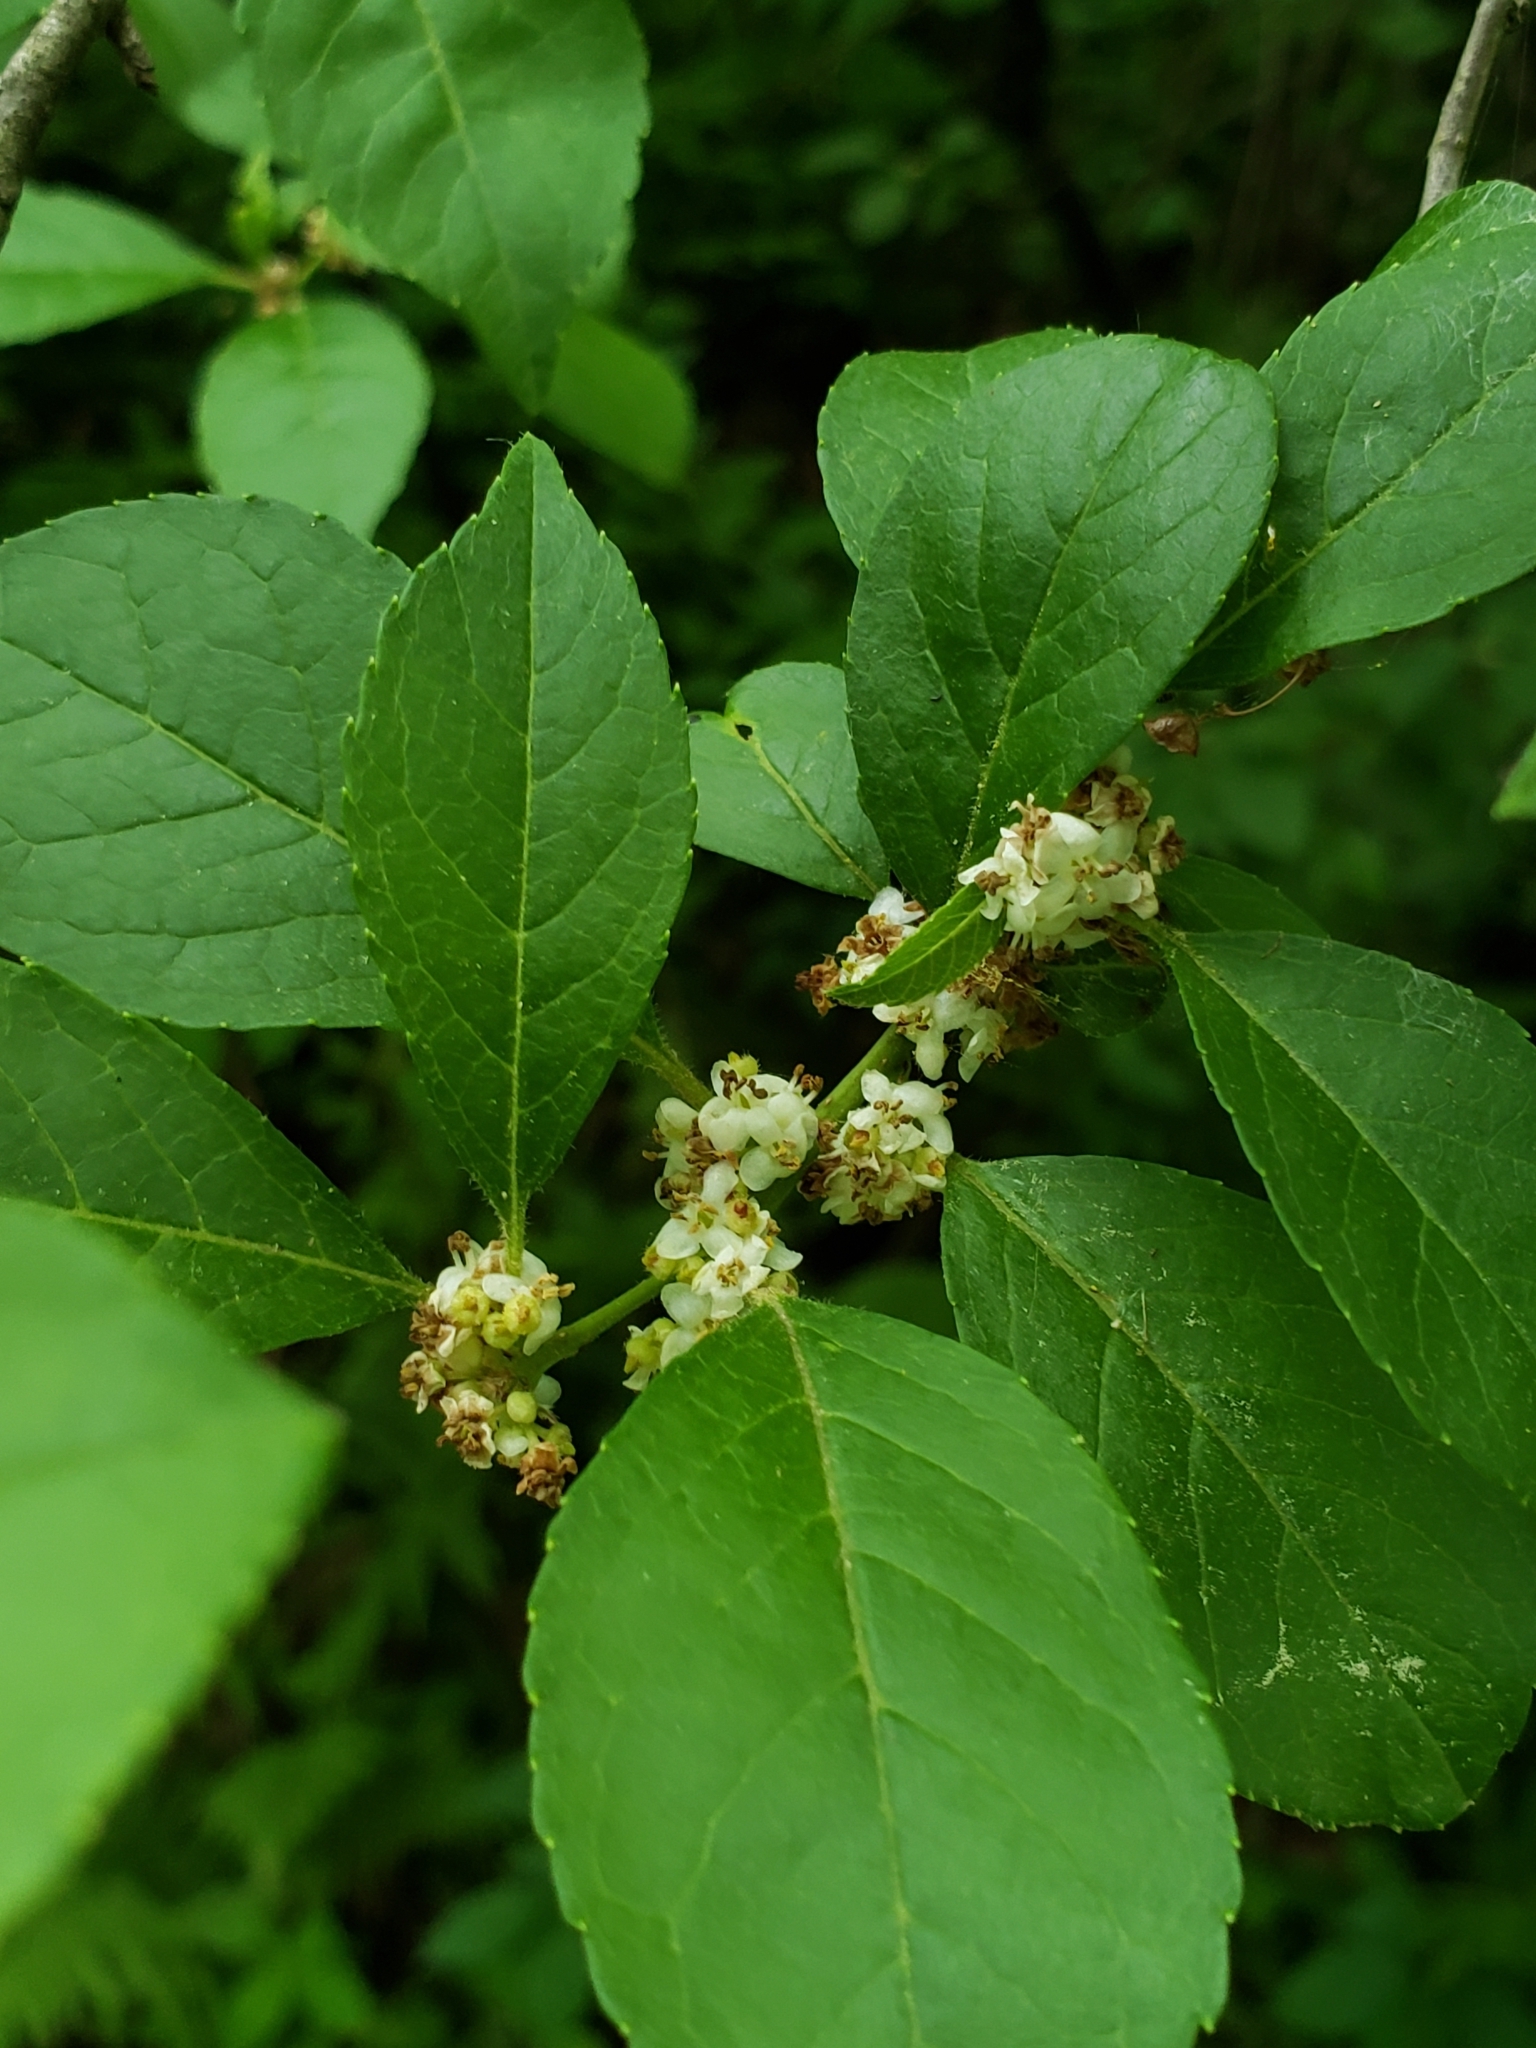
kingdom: Plantae
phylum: Tracheophyta
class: Magnoliopsida
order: Aquifoliales
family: Aquifoliaceae
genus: Ilex
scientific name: Ilex verticillata
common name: Virginia winterberry
